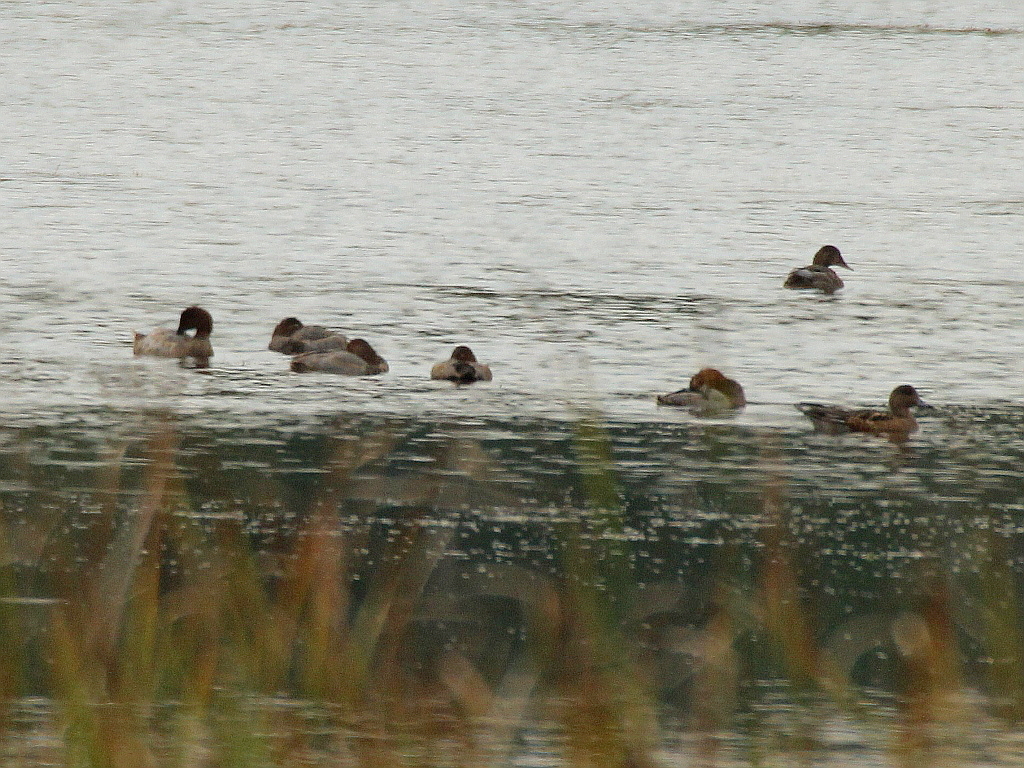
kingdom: Animalia
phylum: Chordata
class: Aves
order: Anseriformes
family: Anatidae
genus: Aythya
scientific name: Aythya ferina
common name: Common pochard
